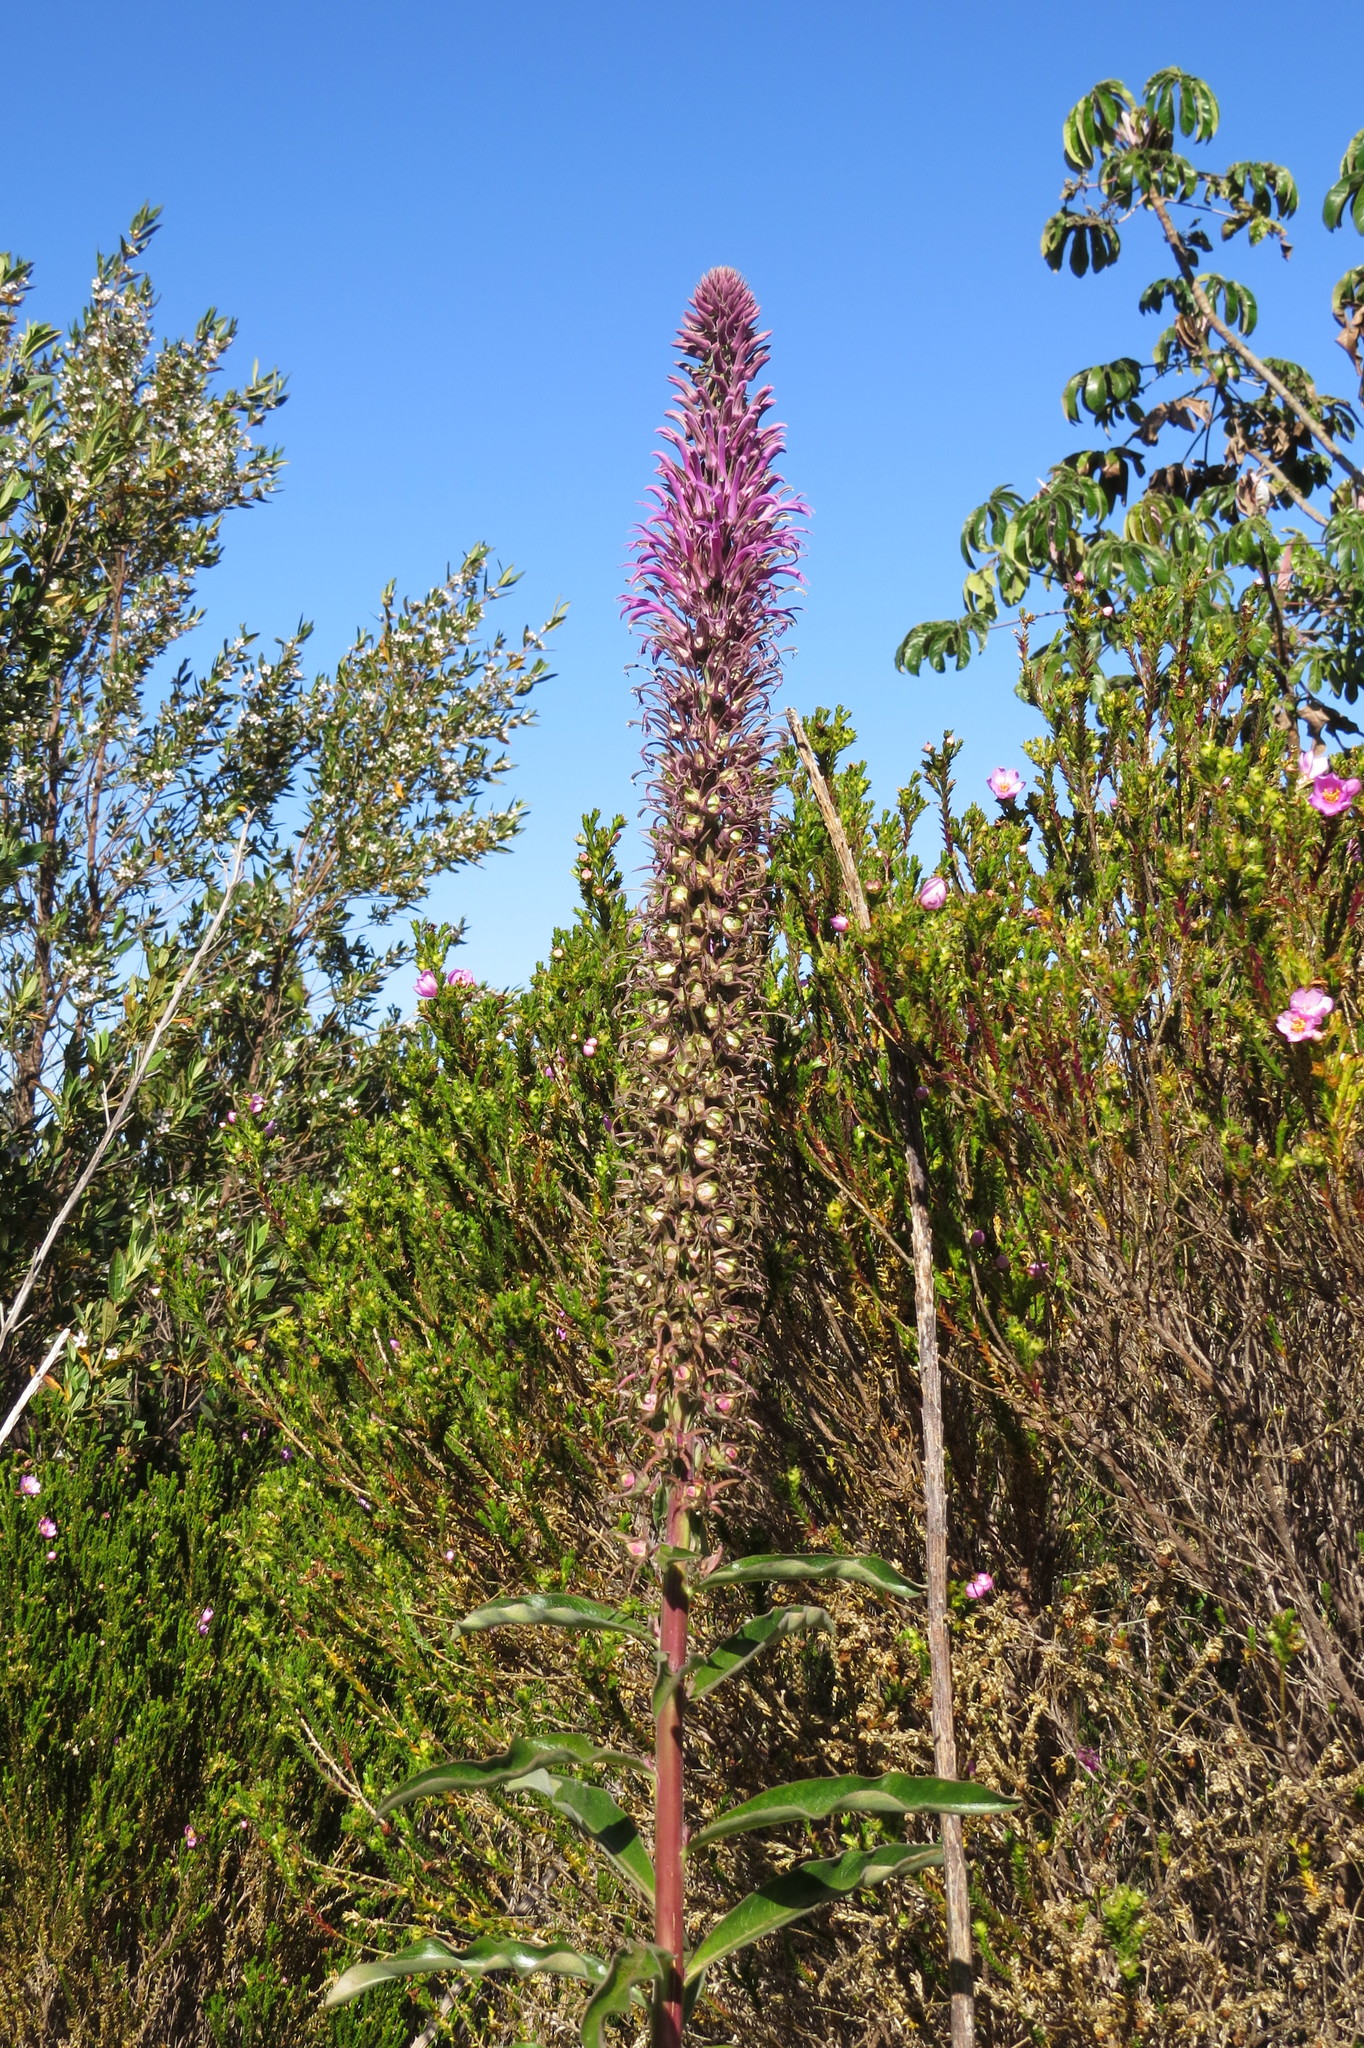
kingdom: Plantae
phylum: Tracheophyta
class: Magnoliopsida
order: Asterales
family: Campanulaceae
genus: Lobelia
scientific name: Lobelia brasiliensis
